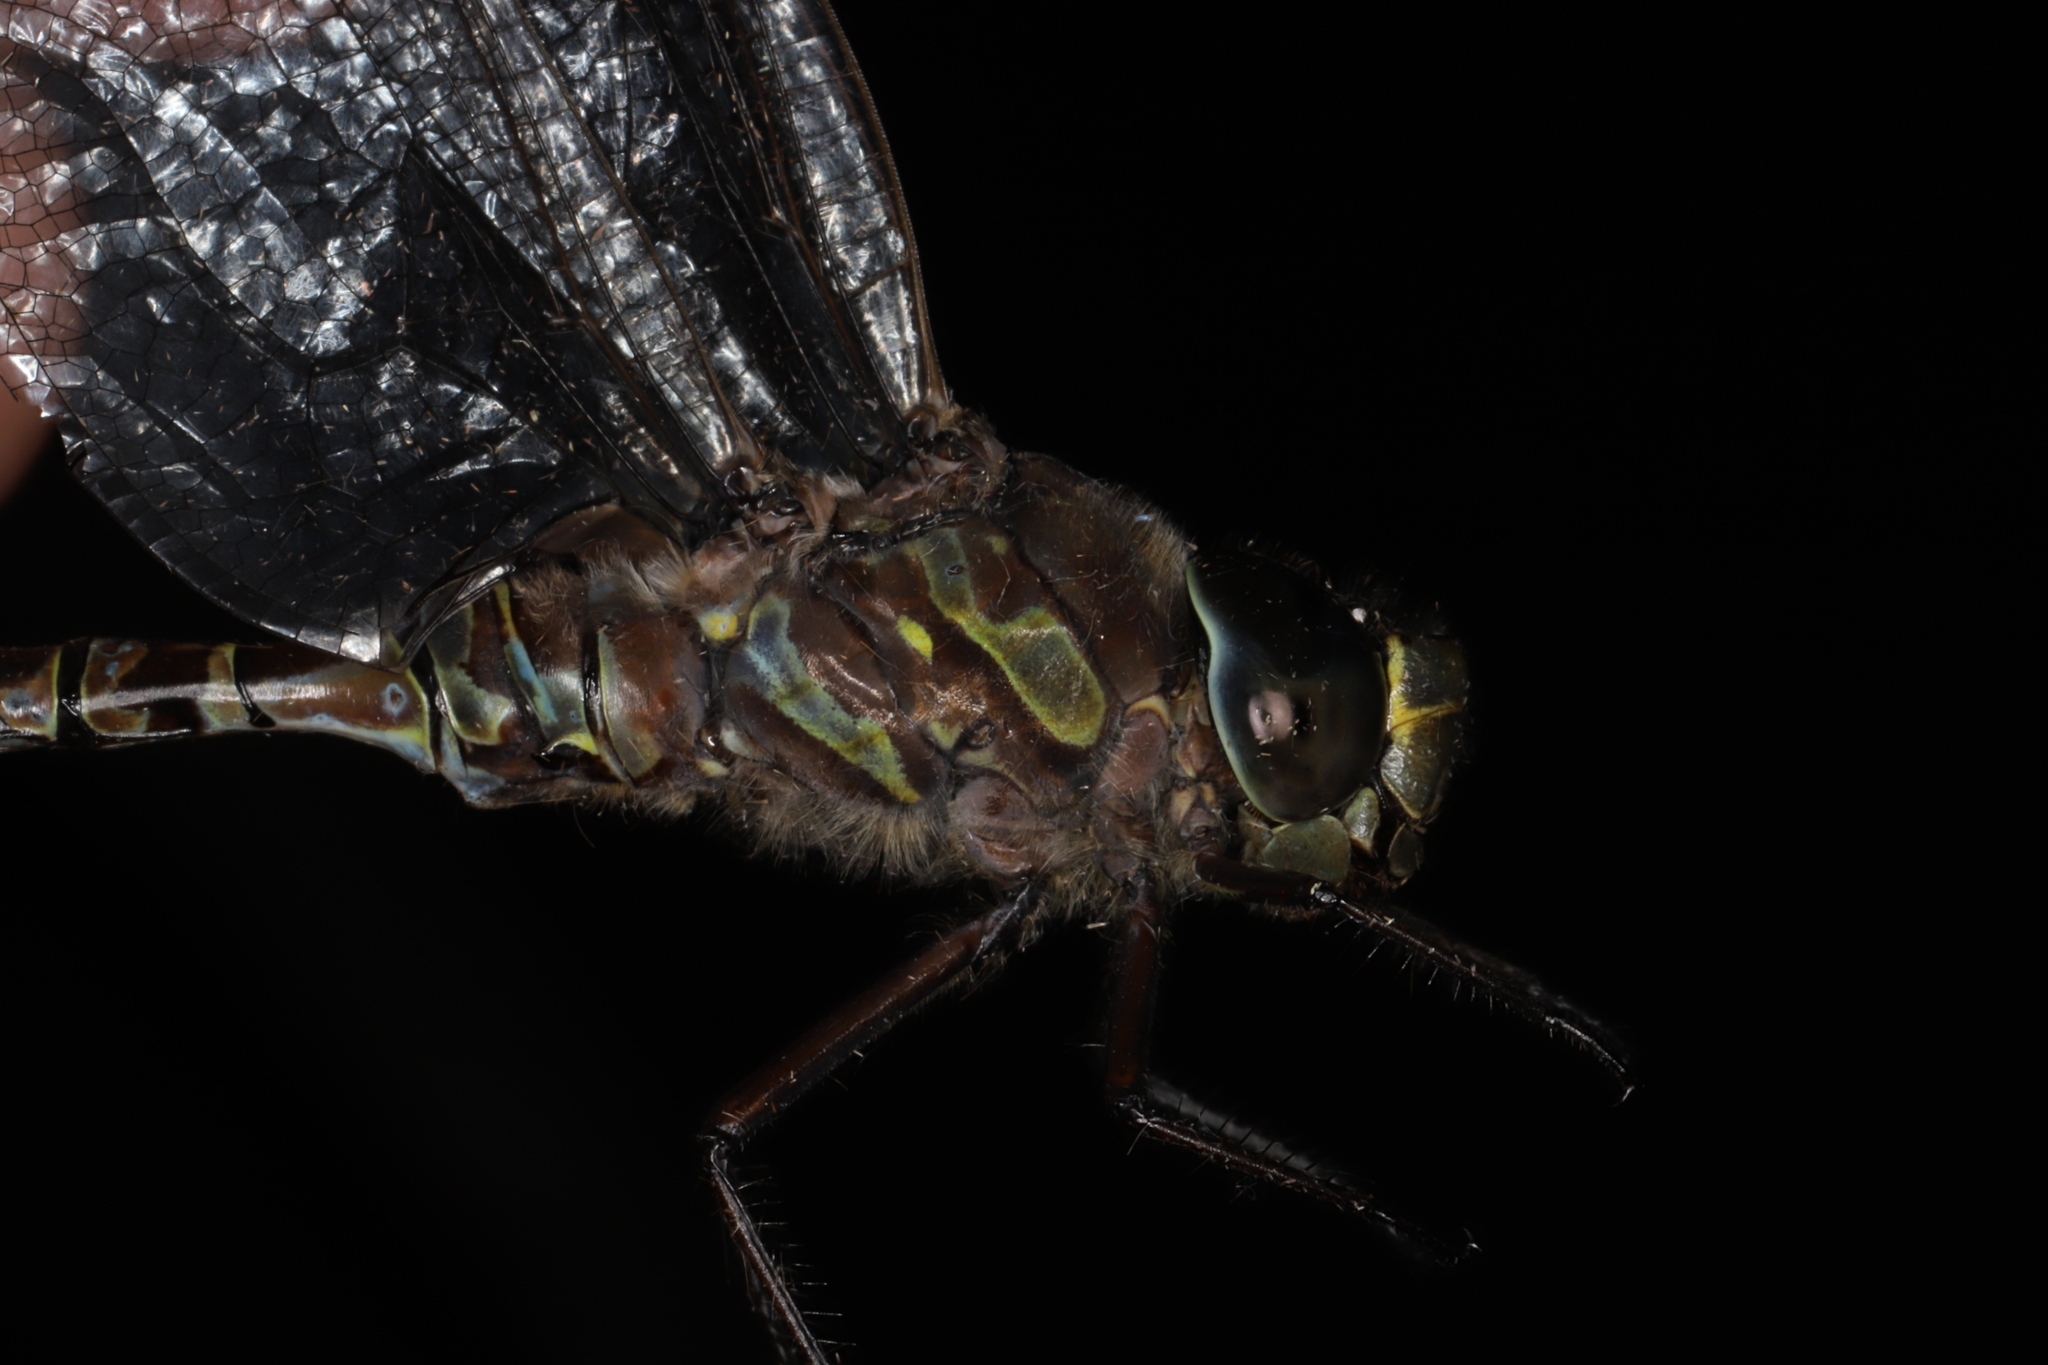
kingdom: Animalia
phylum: Arthropoda
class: Insecta
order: Odonata
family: Aeshnidae
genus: Aeshna
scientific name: Aeshna canadensis
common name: Canada darner
